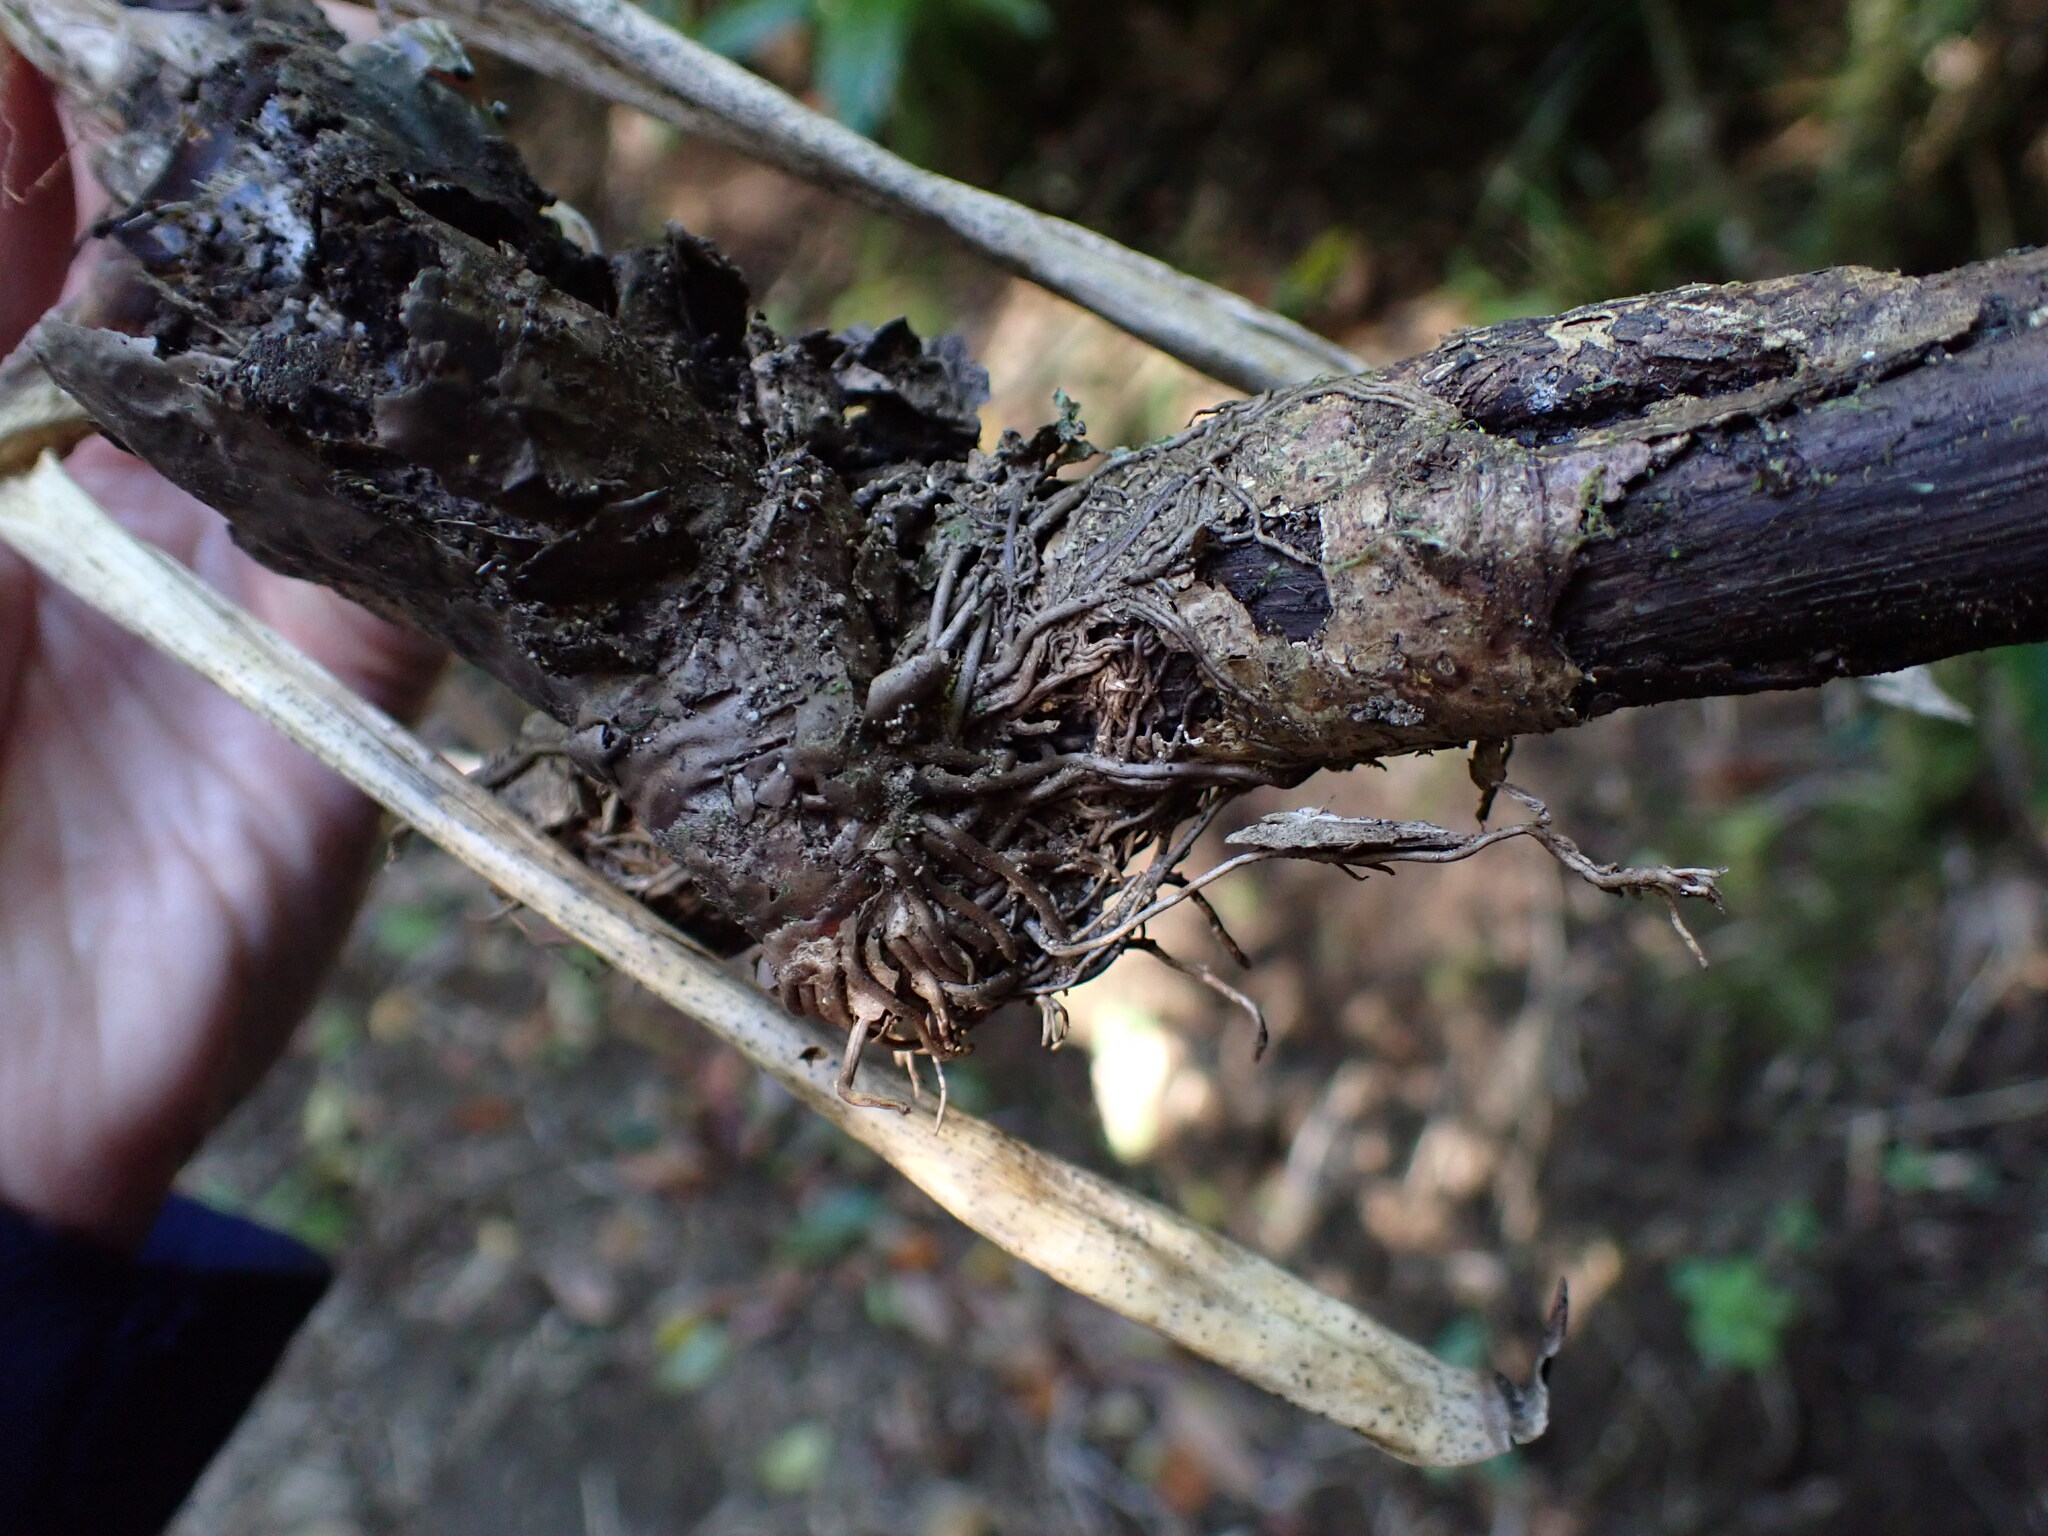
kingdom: Plantae
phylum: Tracheophyta
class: Liliopsida
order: Poales
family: Bromeliaceae
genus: Tillandsia
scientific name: Tillandsia guatemalensis
